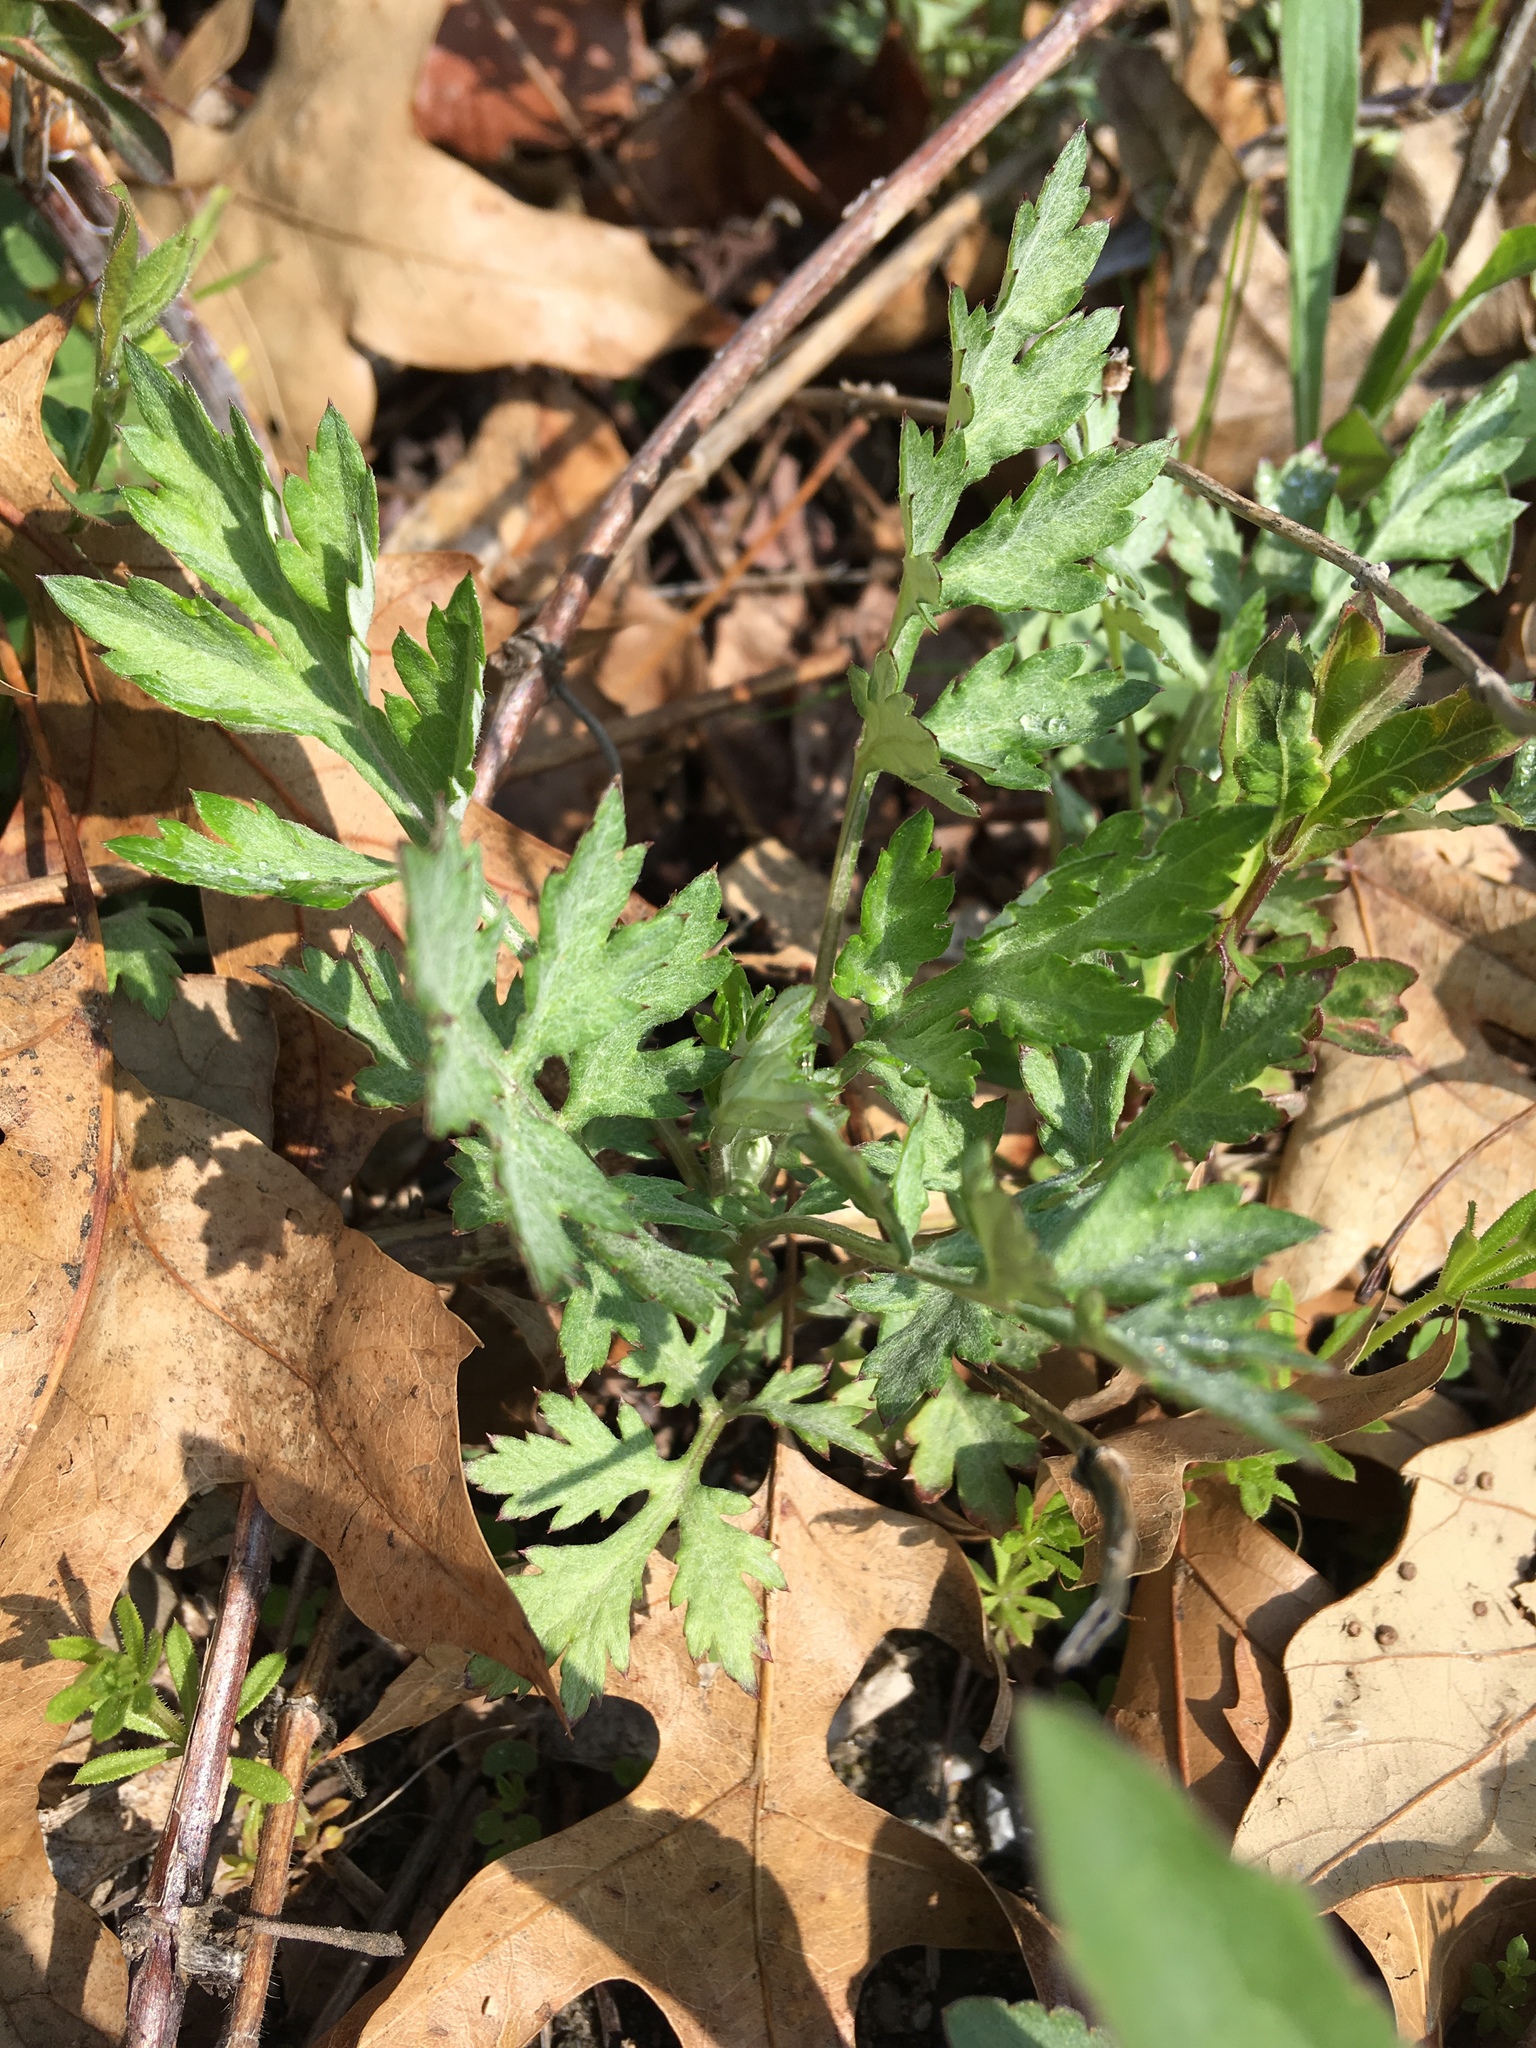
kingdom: Plantae
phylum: Tracheophyta
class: Magnoliopsida
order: Asterales
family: Asteraceae
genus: Artemisia
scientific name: Artemisia vulgaris
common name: Mugwort
